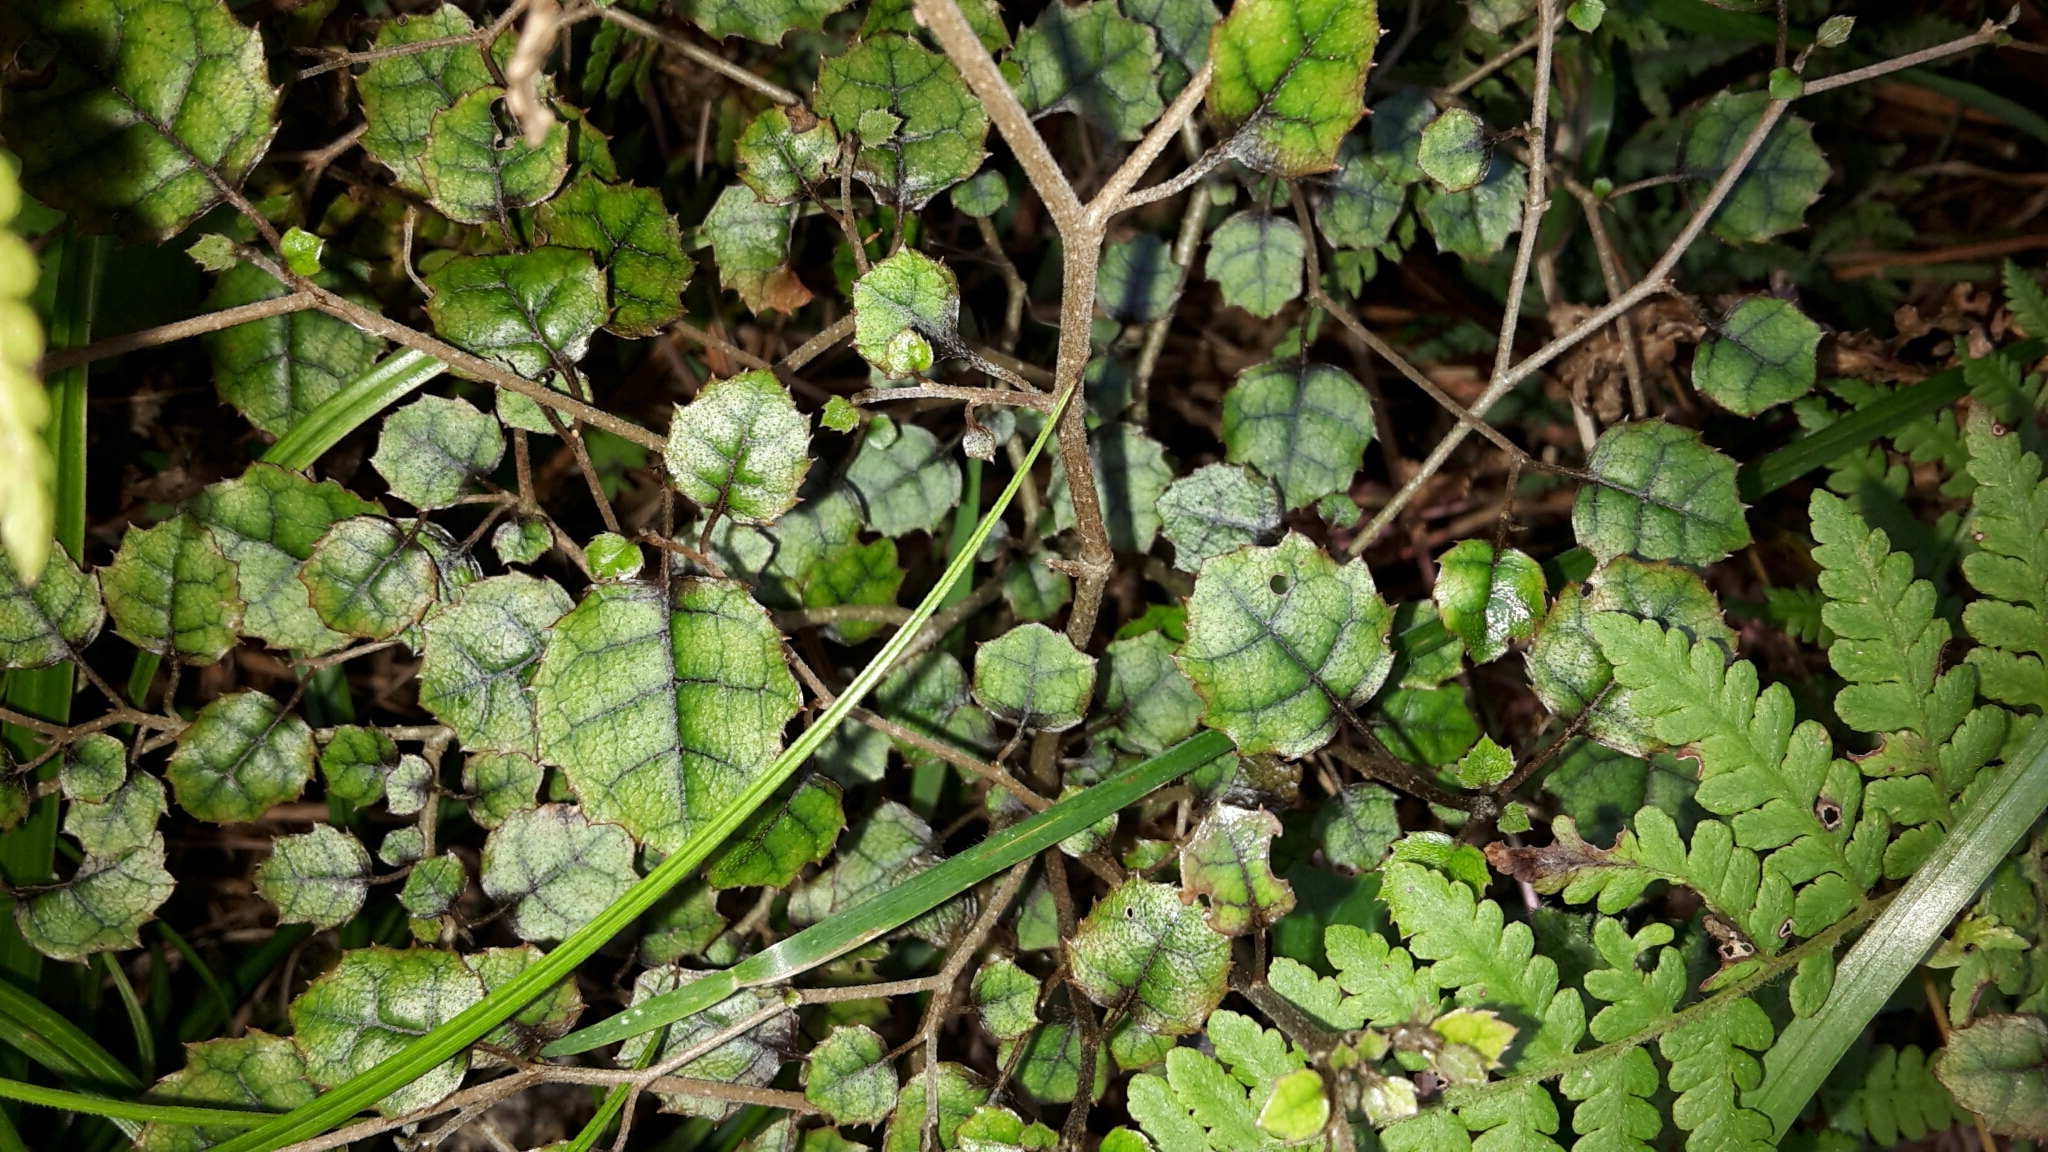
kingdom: Plantae
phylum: Tracheophyta
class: Magnoliopsida
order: Asterales
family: Rousseaceae
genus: Carpodetus
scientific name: Carpodetus serratus
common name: White mapau
